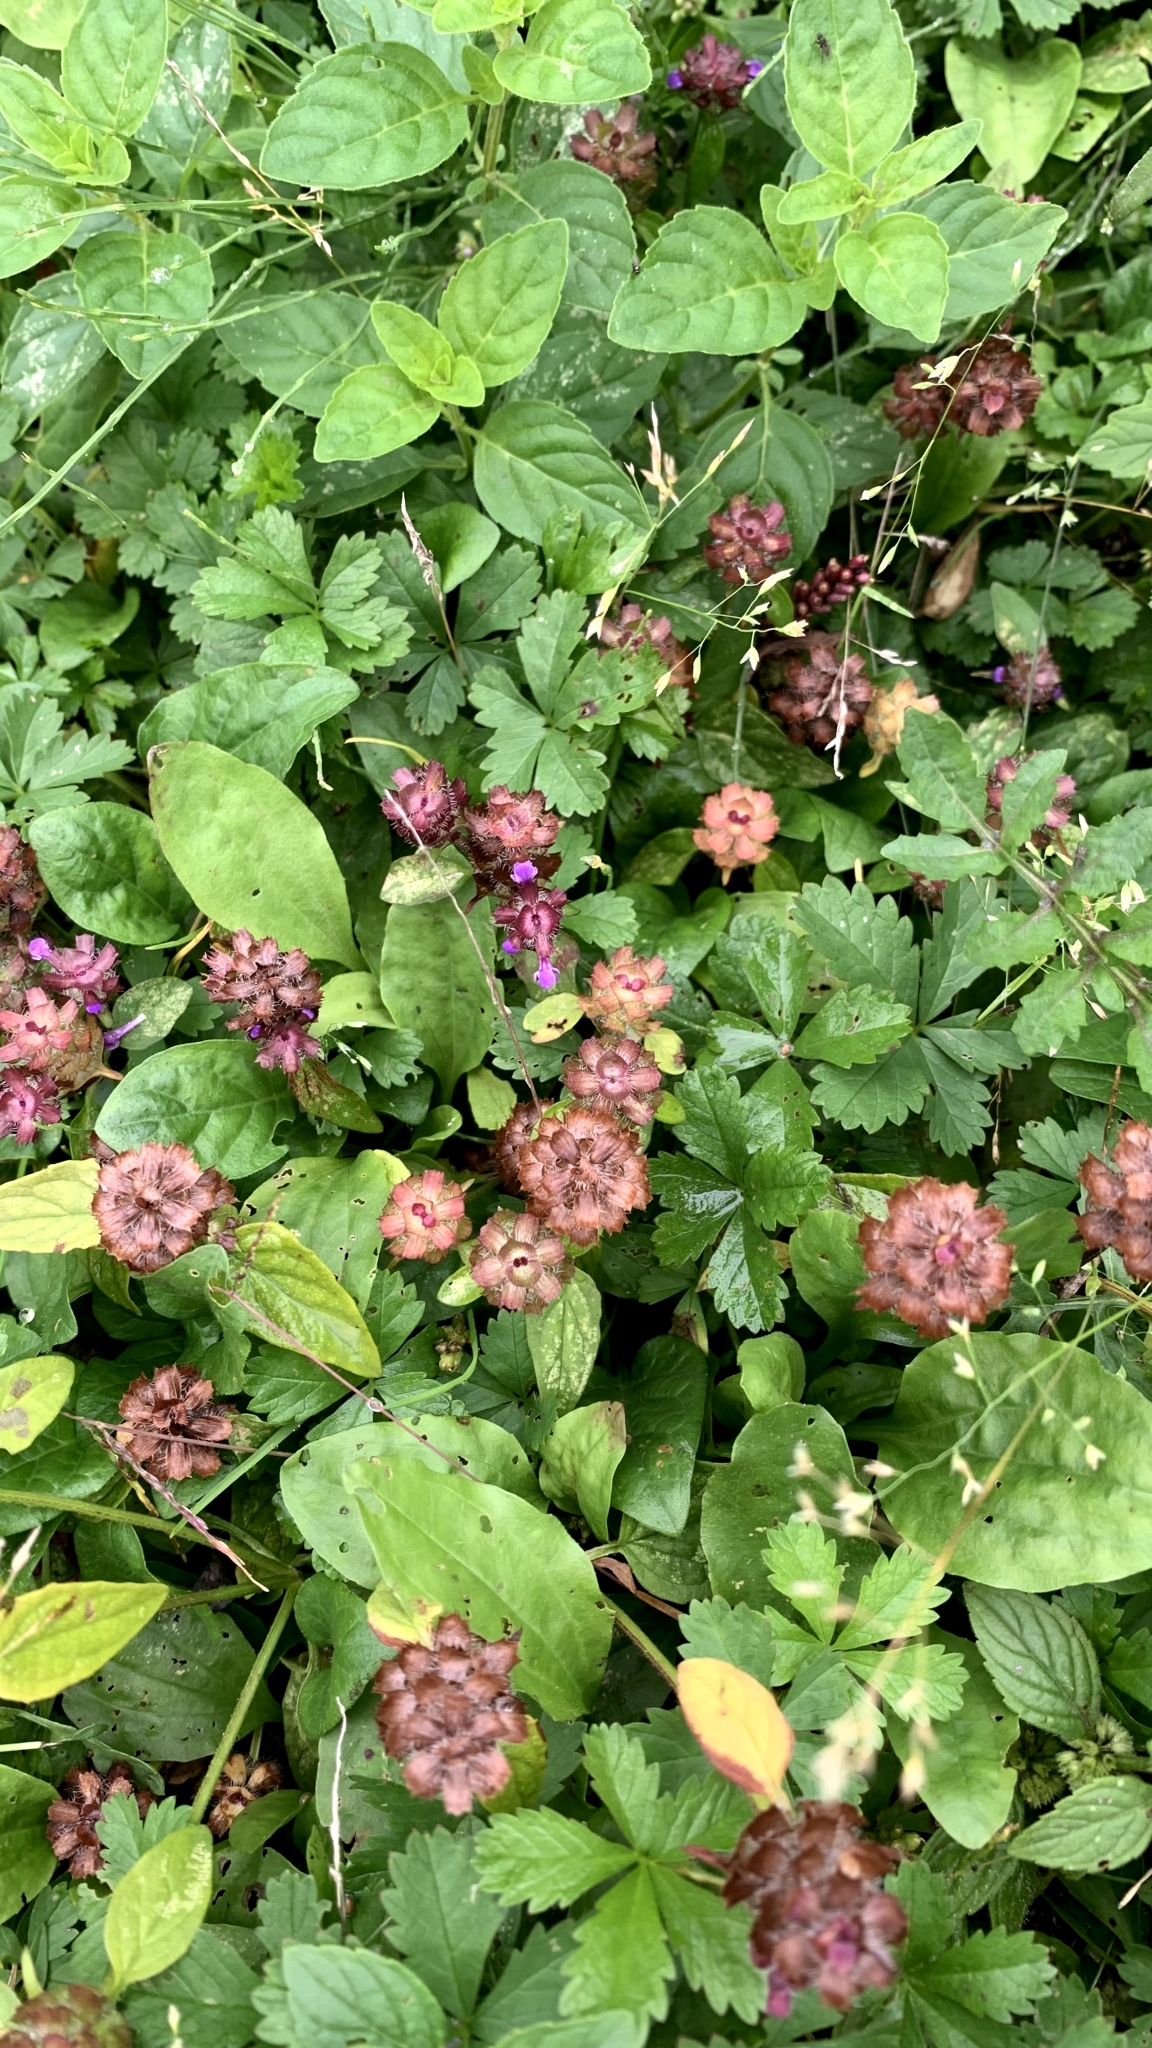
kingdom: Plantae
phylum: Tracheophyta
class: Magnoliopsida
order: Lamiales
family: Lamiaceae
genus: Prunella
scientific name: Prunella vulgaris
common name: Heal-all
